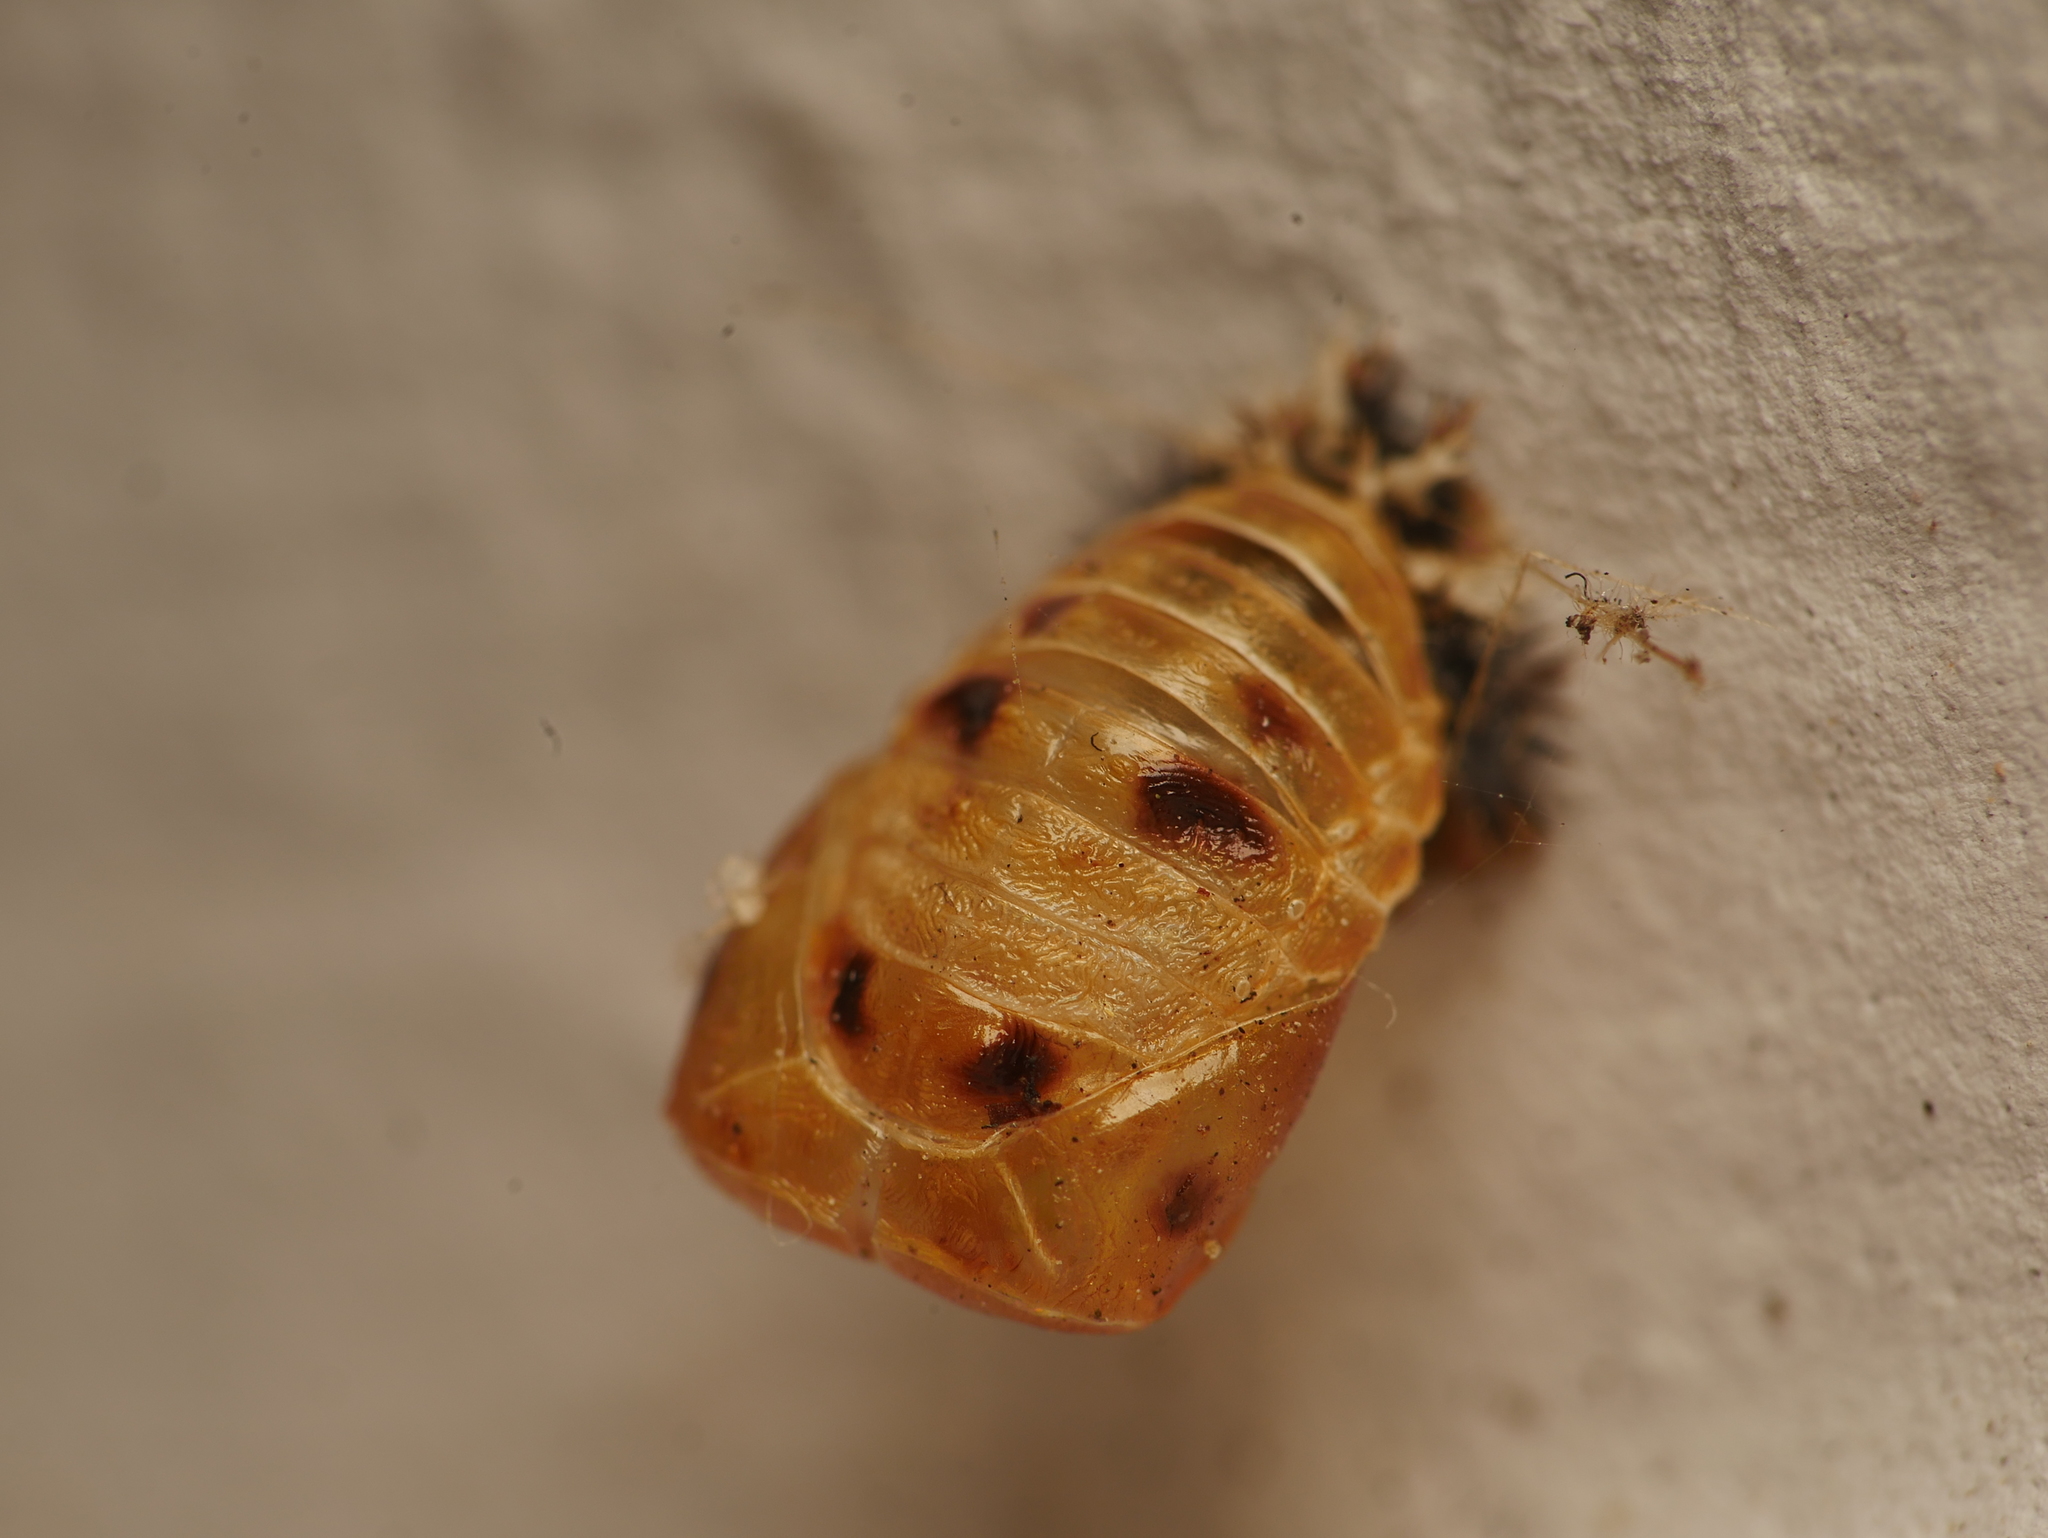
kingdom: Animalia
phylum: Arthropoda
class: Insecta
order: Coleoptera
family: Coccinellidae
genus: Harmonia
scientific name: Harmonia axyridis
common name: Harlequin ladybird
